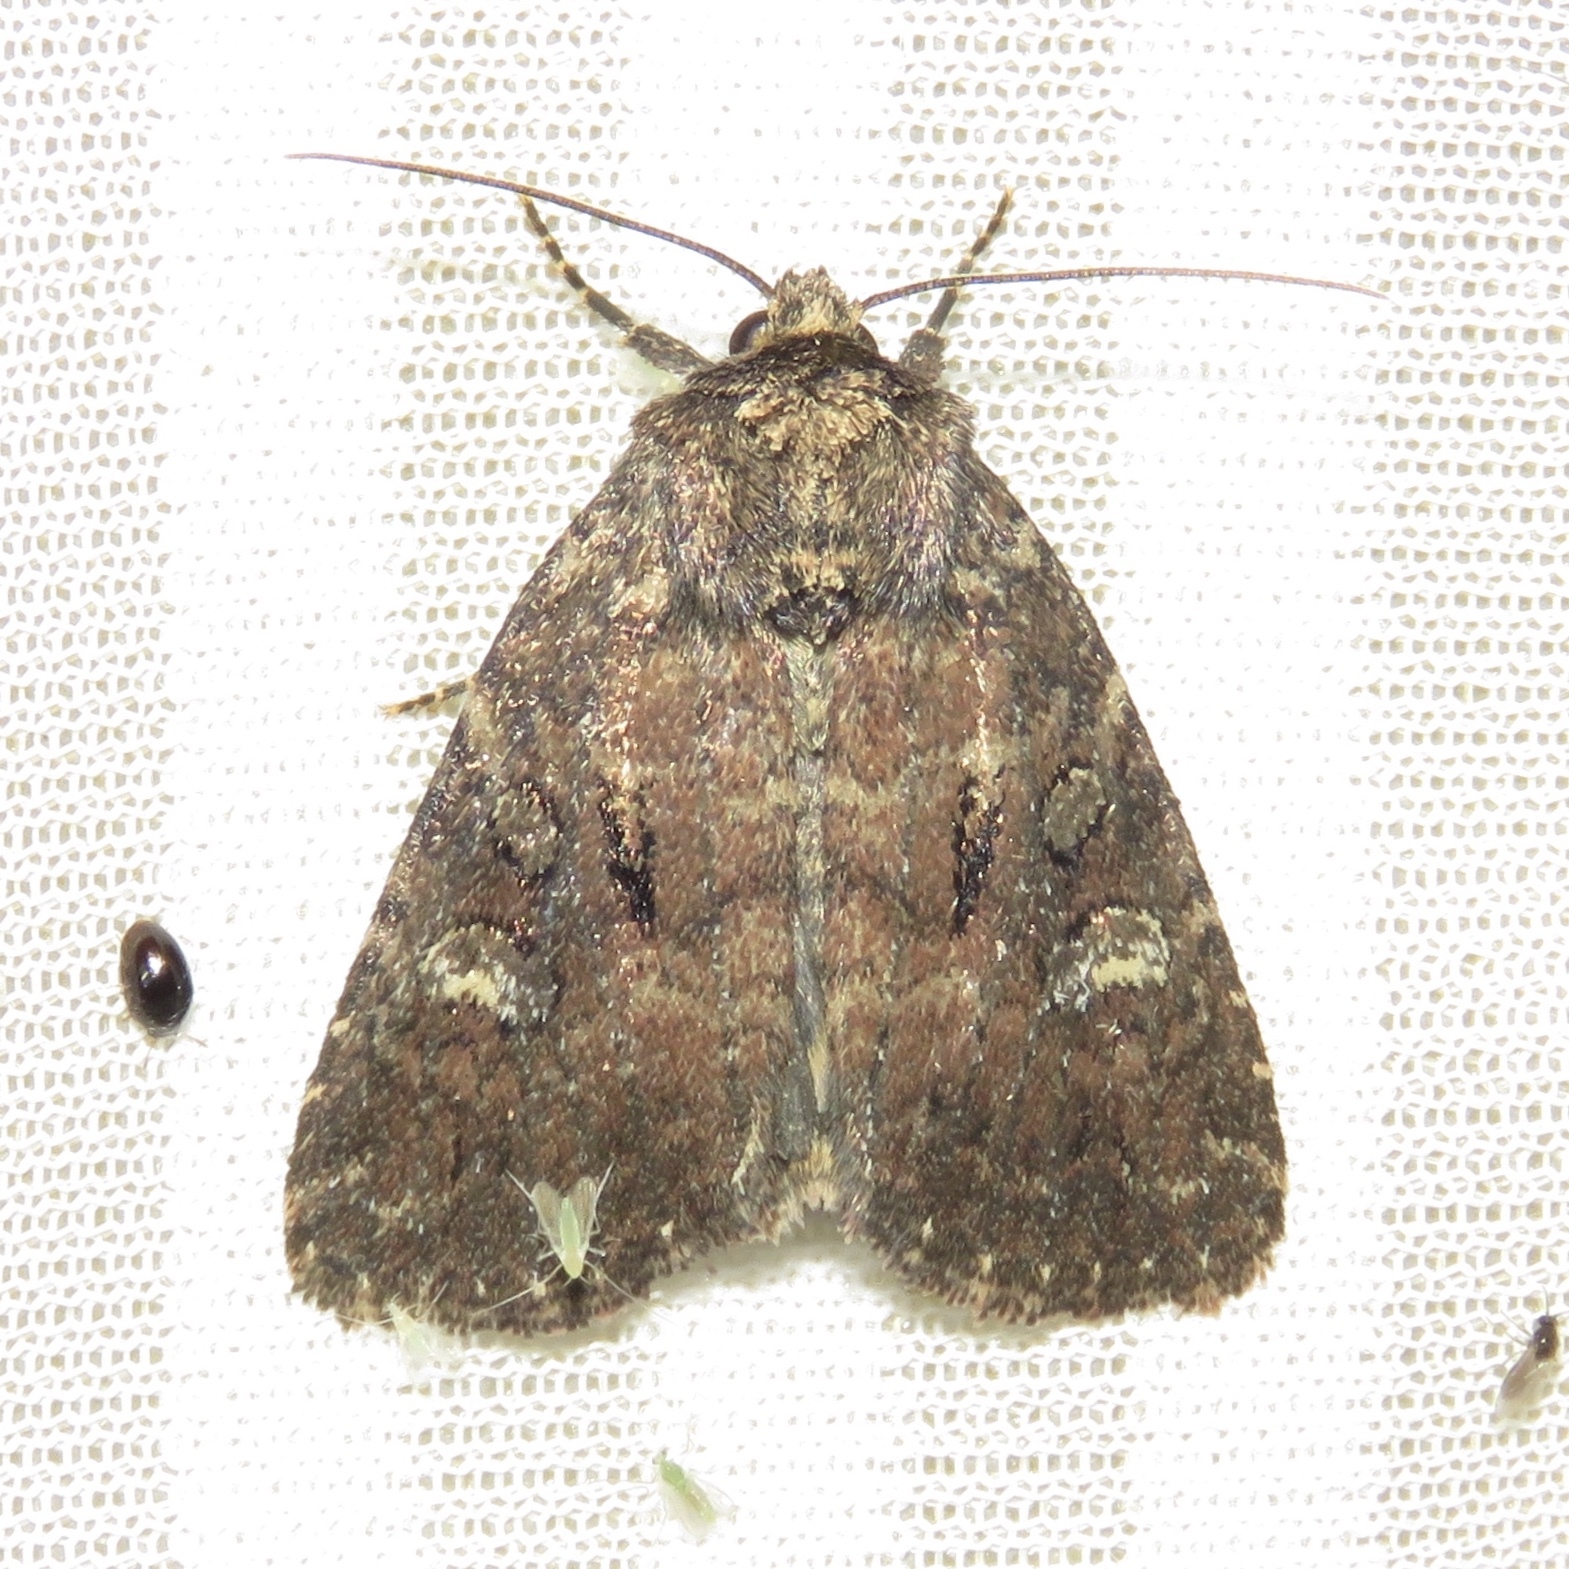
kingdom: Animalia
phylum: Arthropoda
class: Insecta
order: Lepidoptera
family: Noctuidae
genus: Orthodes
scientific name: Orthodes goodelli
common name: Goodell's arches moth
